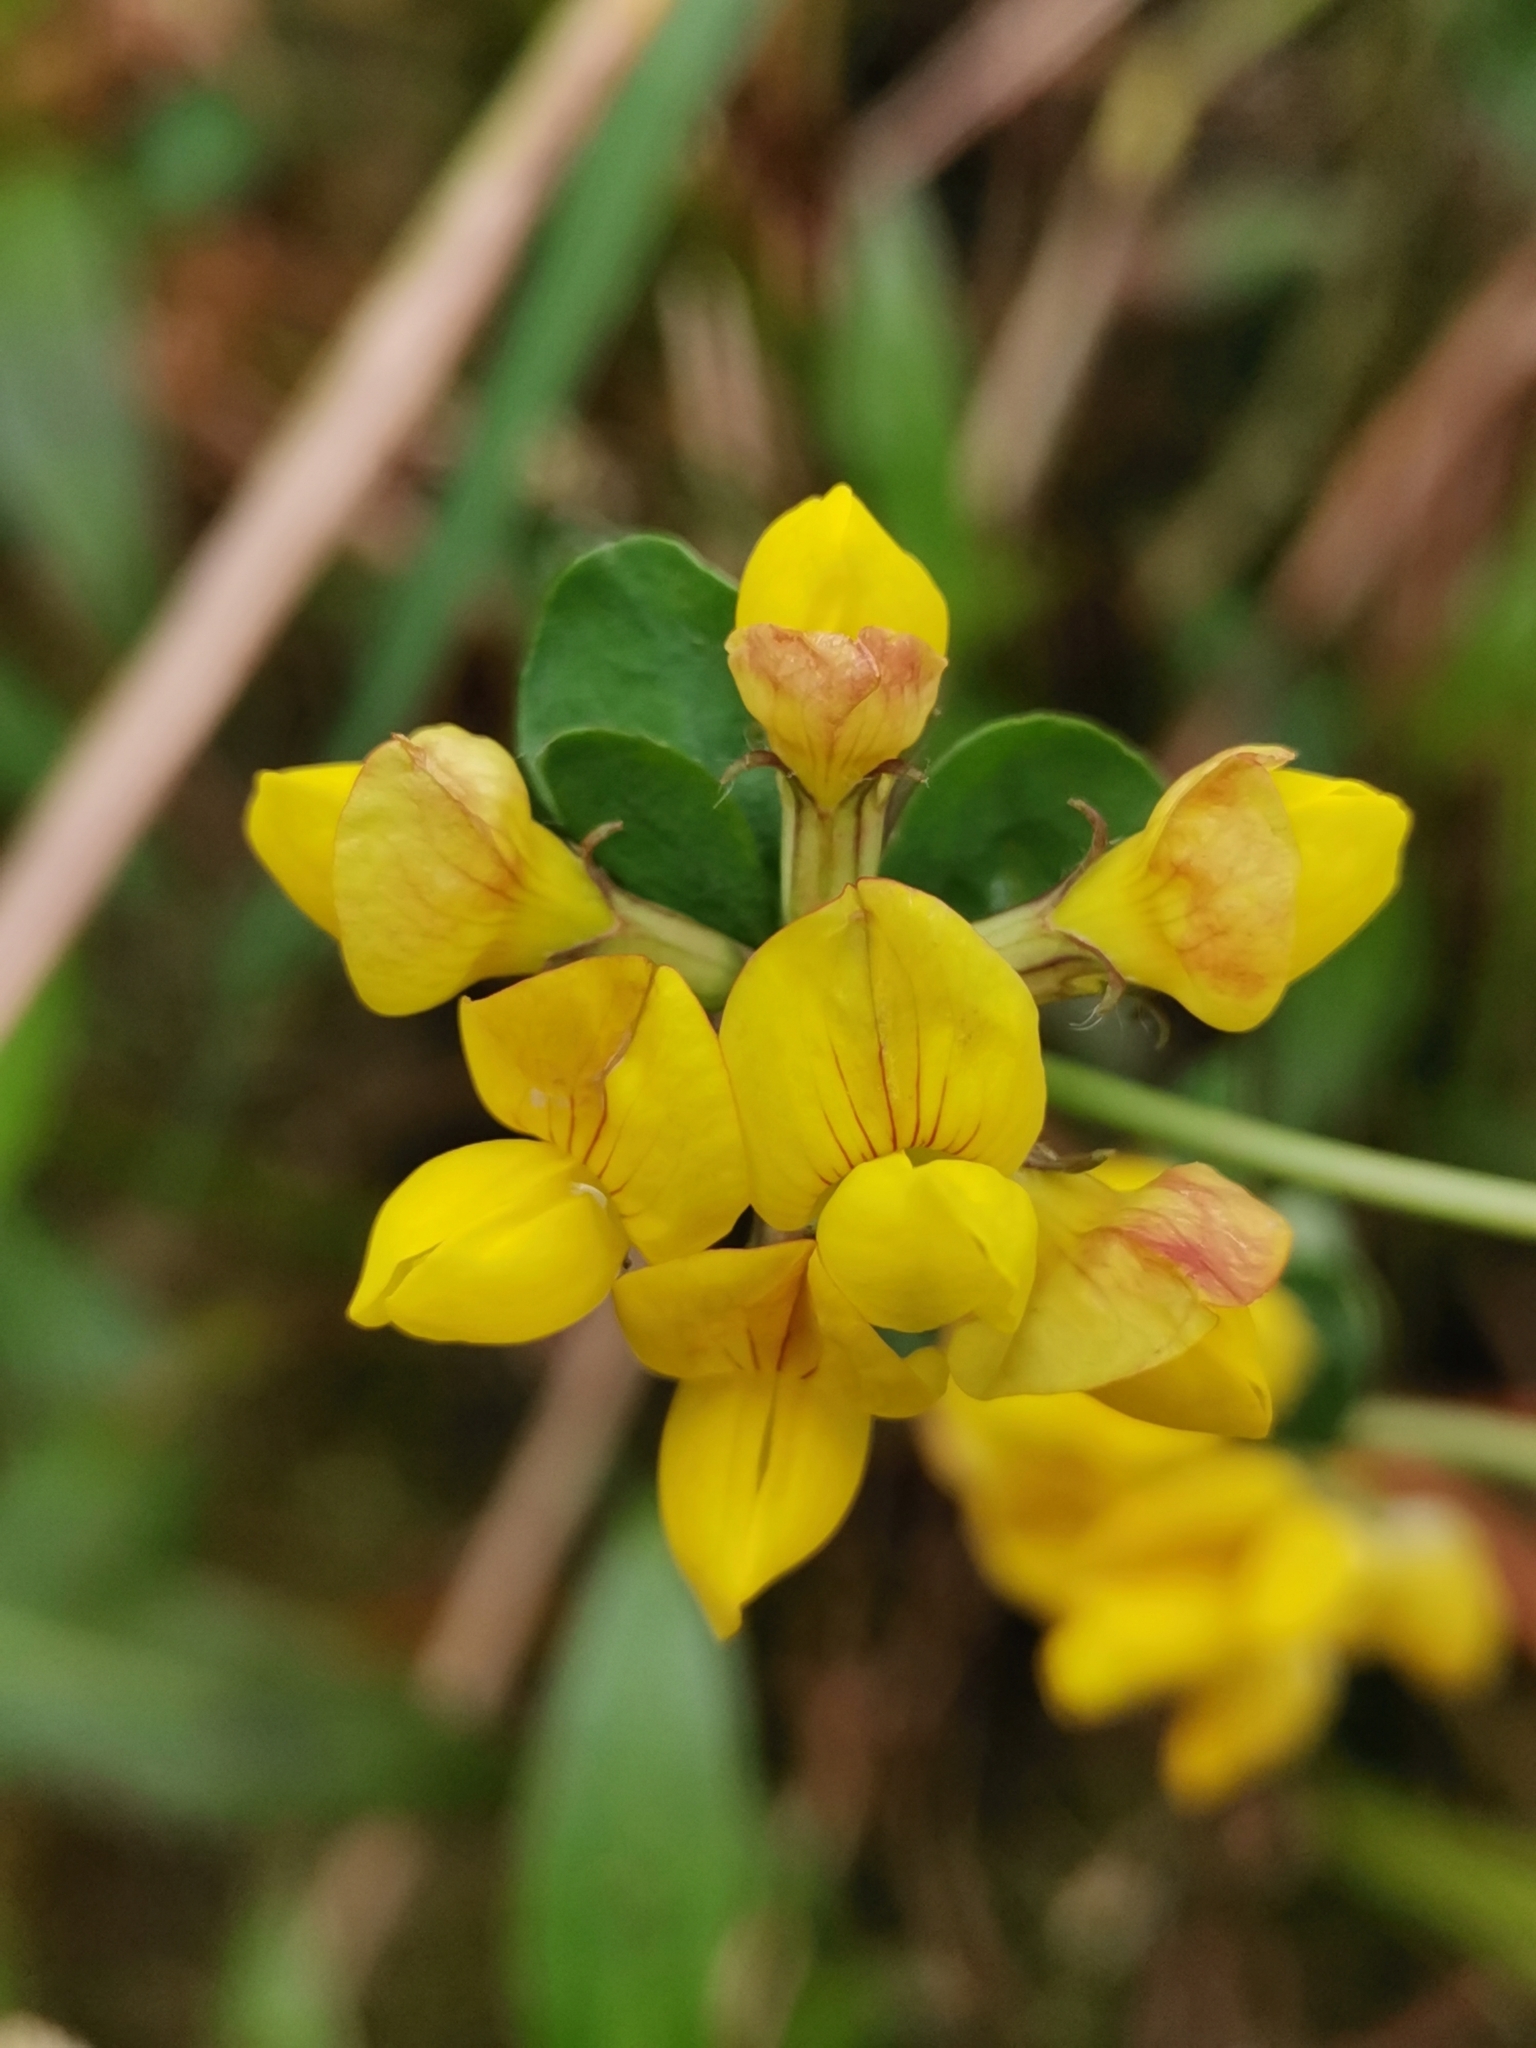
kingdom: Plantae
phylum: Tracheophyta
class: Magnoliopsida
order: Fabales
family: Fabaceae
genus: Lotus
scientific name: Lotus pedunculatus
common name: Greater birdsfoot-trefoil
